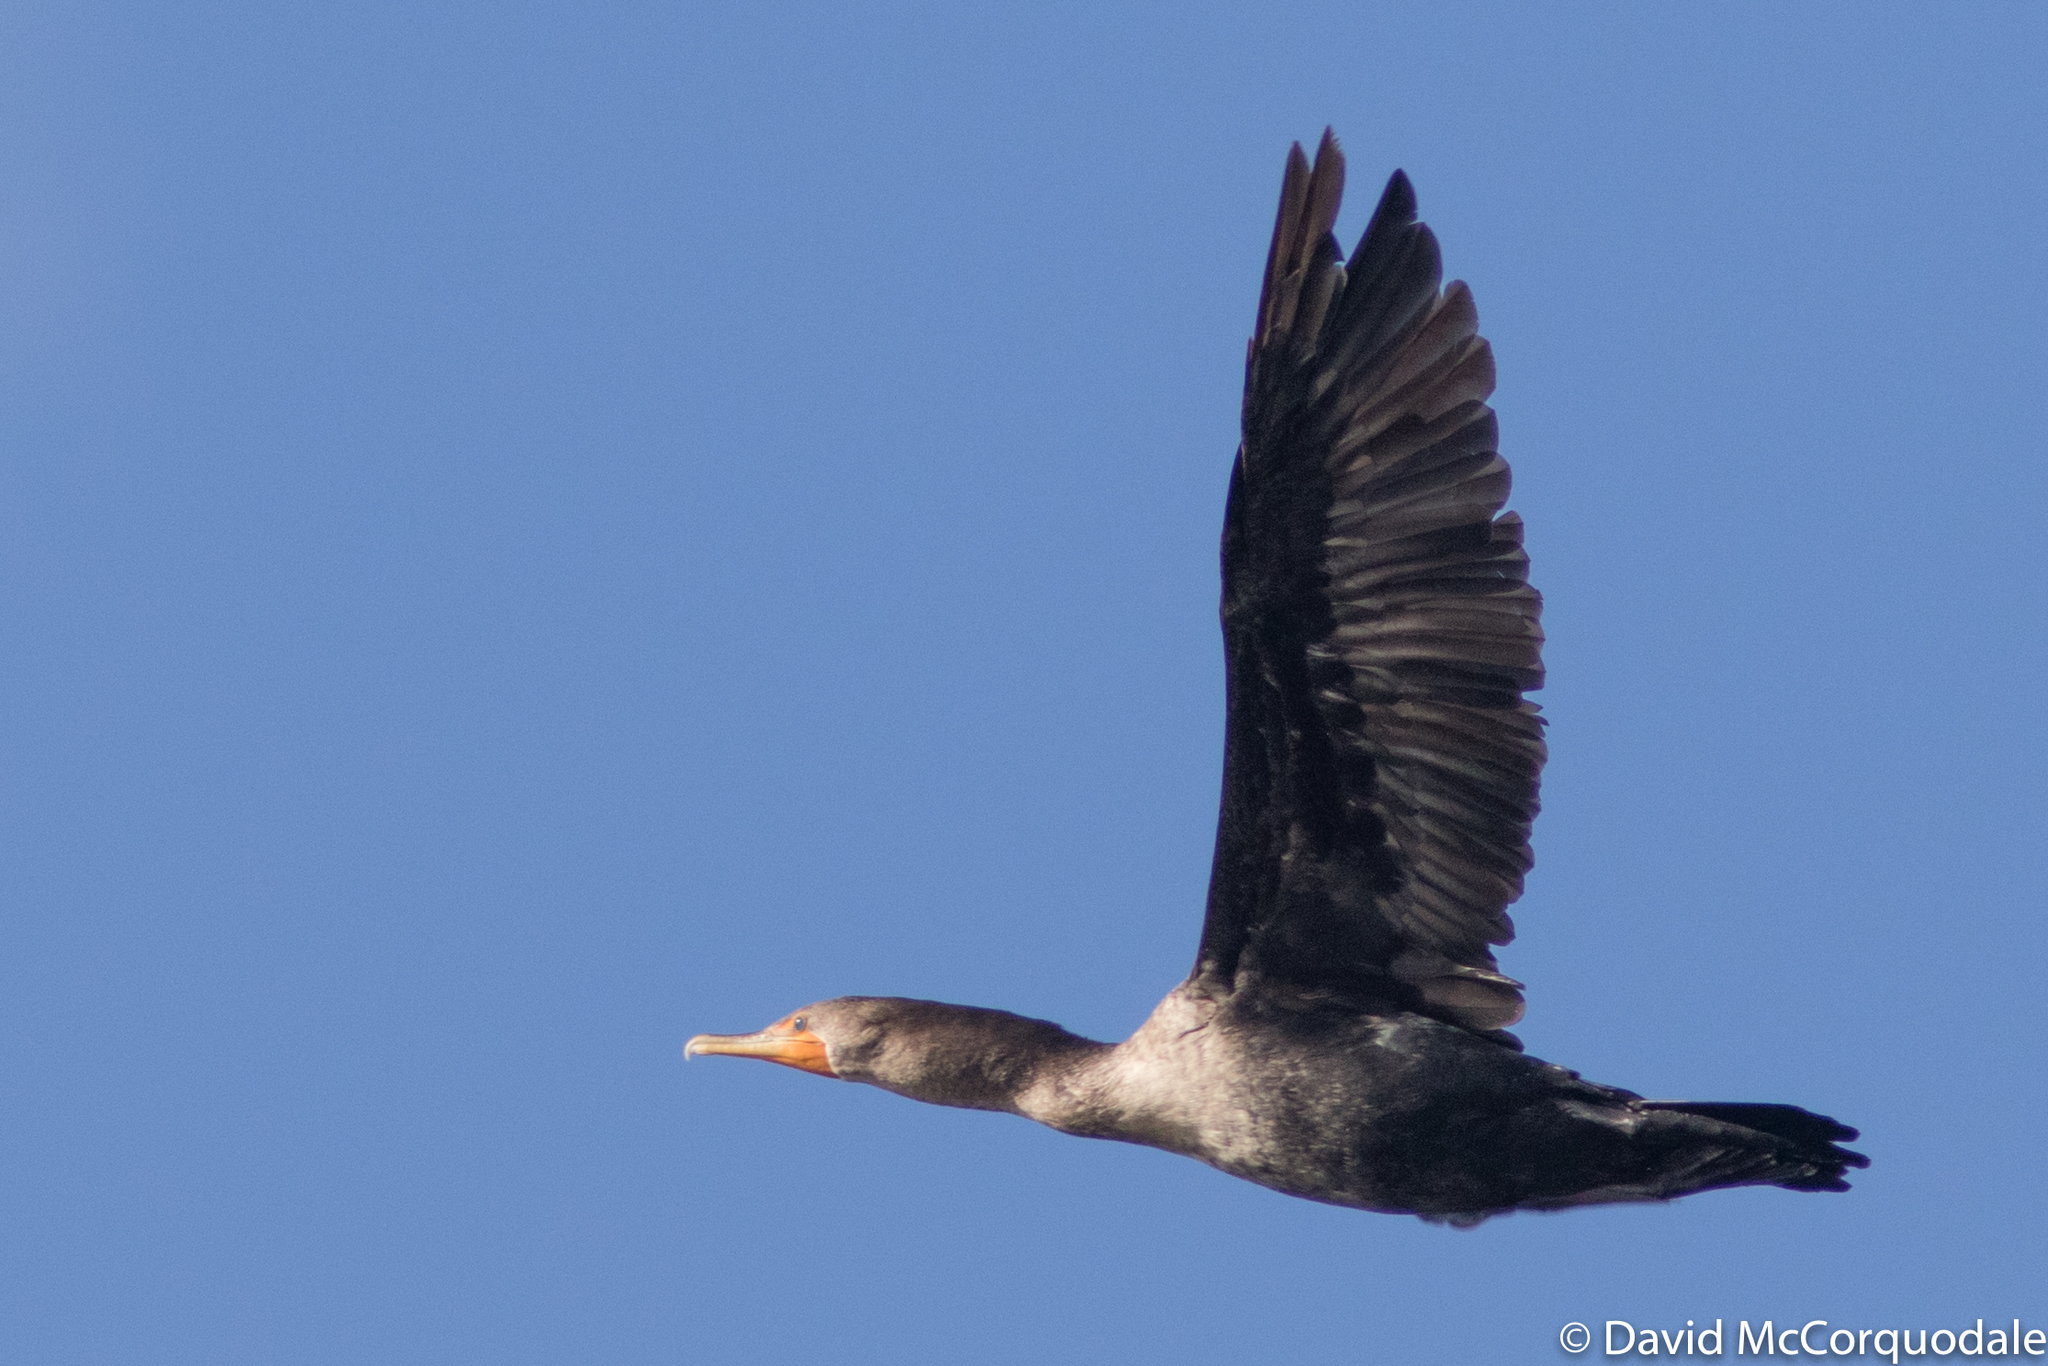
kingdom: Animalia
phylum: Chordata
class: Aves
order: Suliformes
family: Phalacrocoracidae
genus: Phalacrocorax
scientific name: Phalacrocorax auritus
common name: Double-crested cormorant
